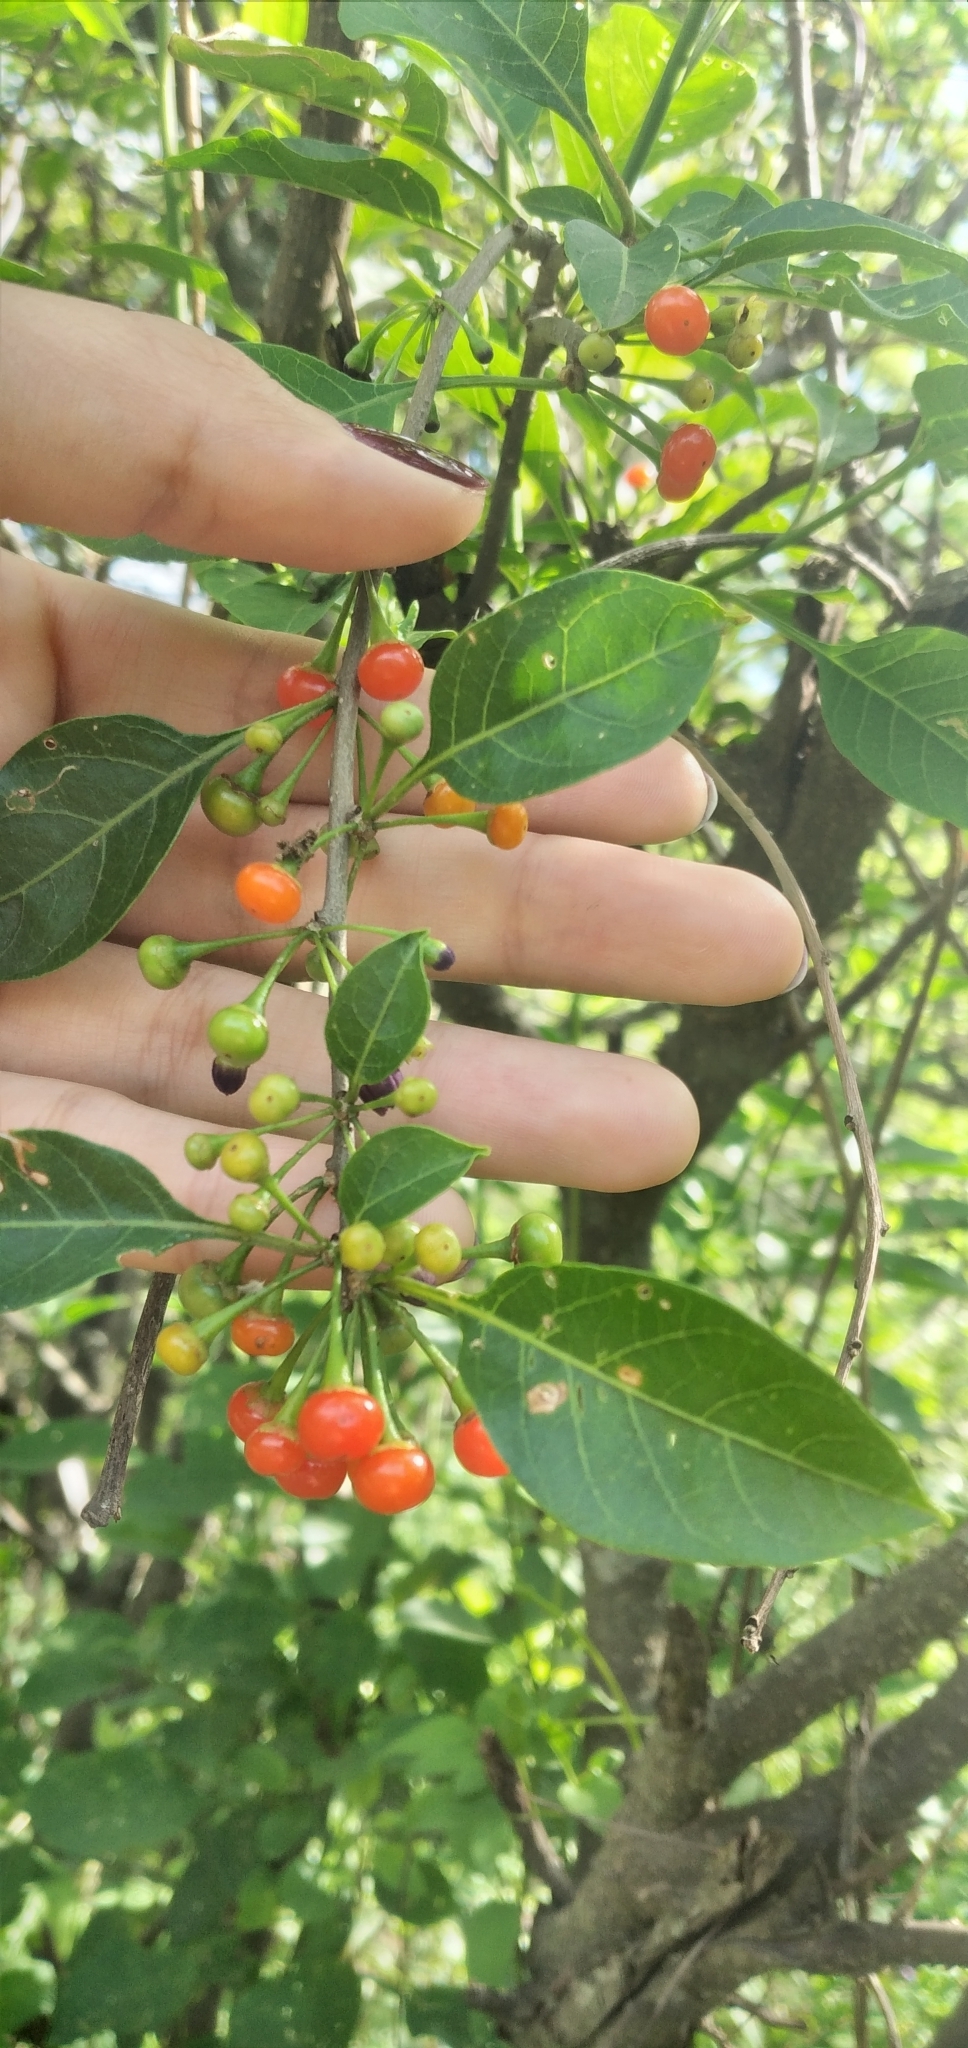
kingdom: Plantae
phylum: Tracheophyta
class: Magnoliopsida
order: Solanales
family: Solanaceae
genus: Vassobia
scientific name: Vassobia breviflora
